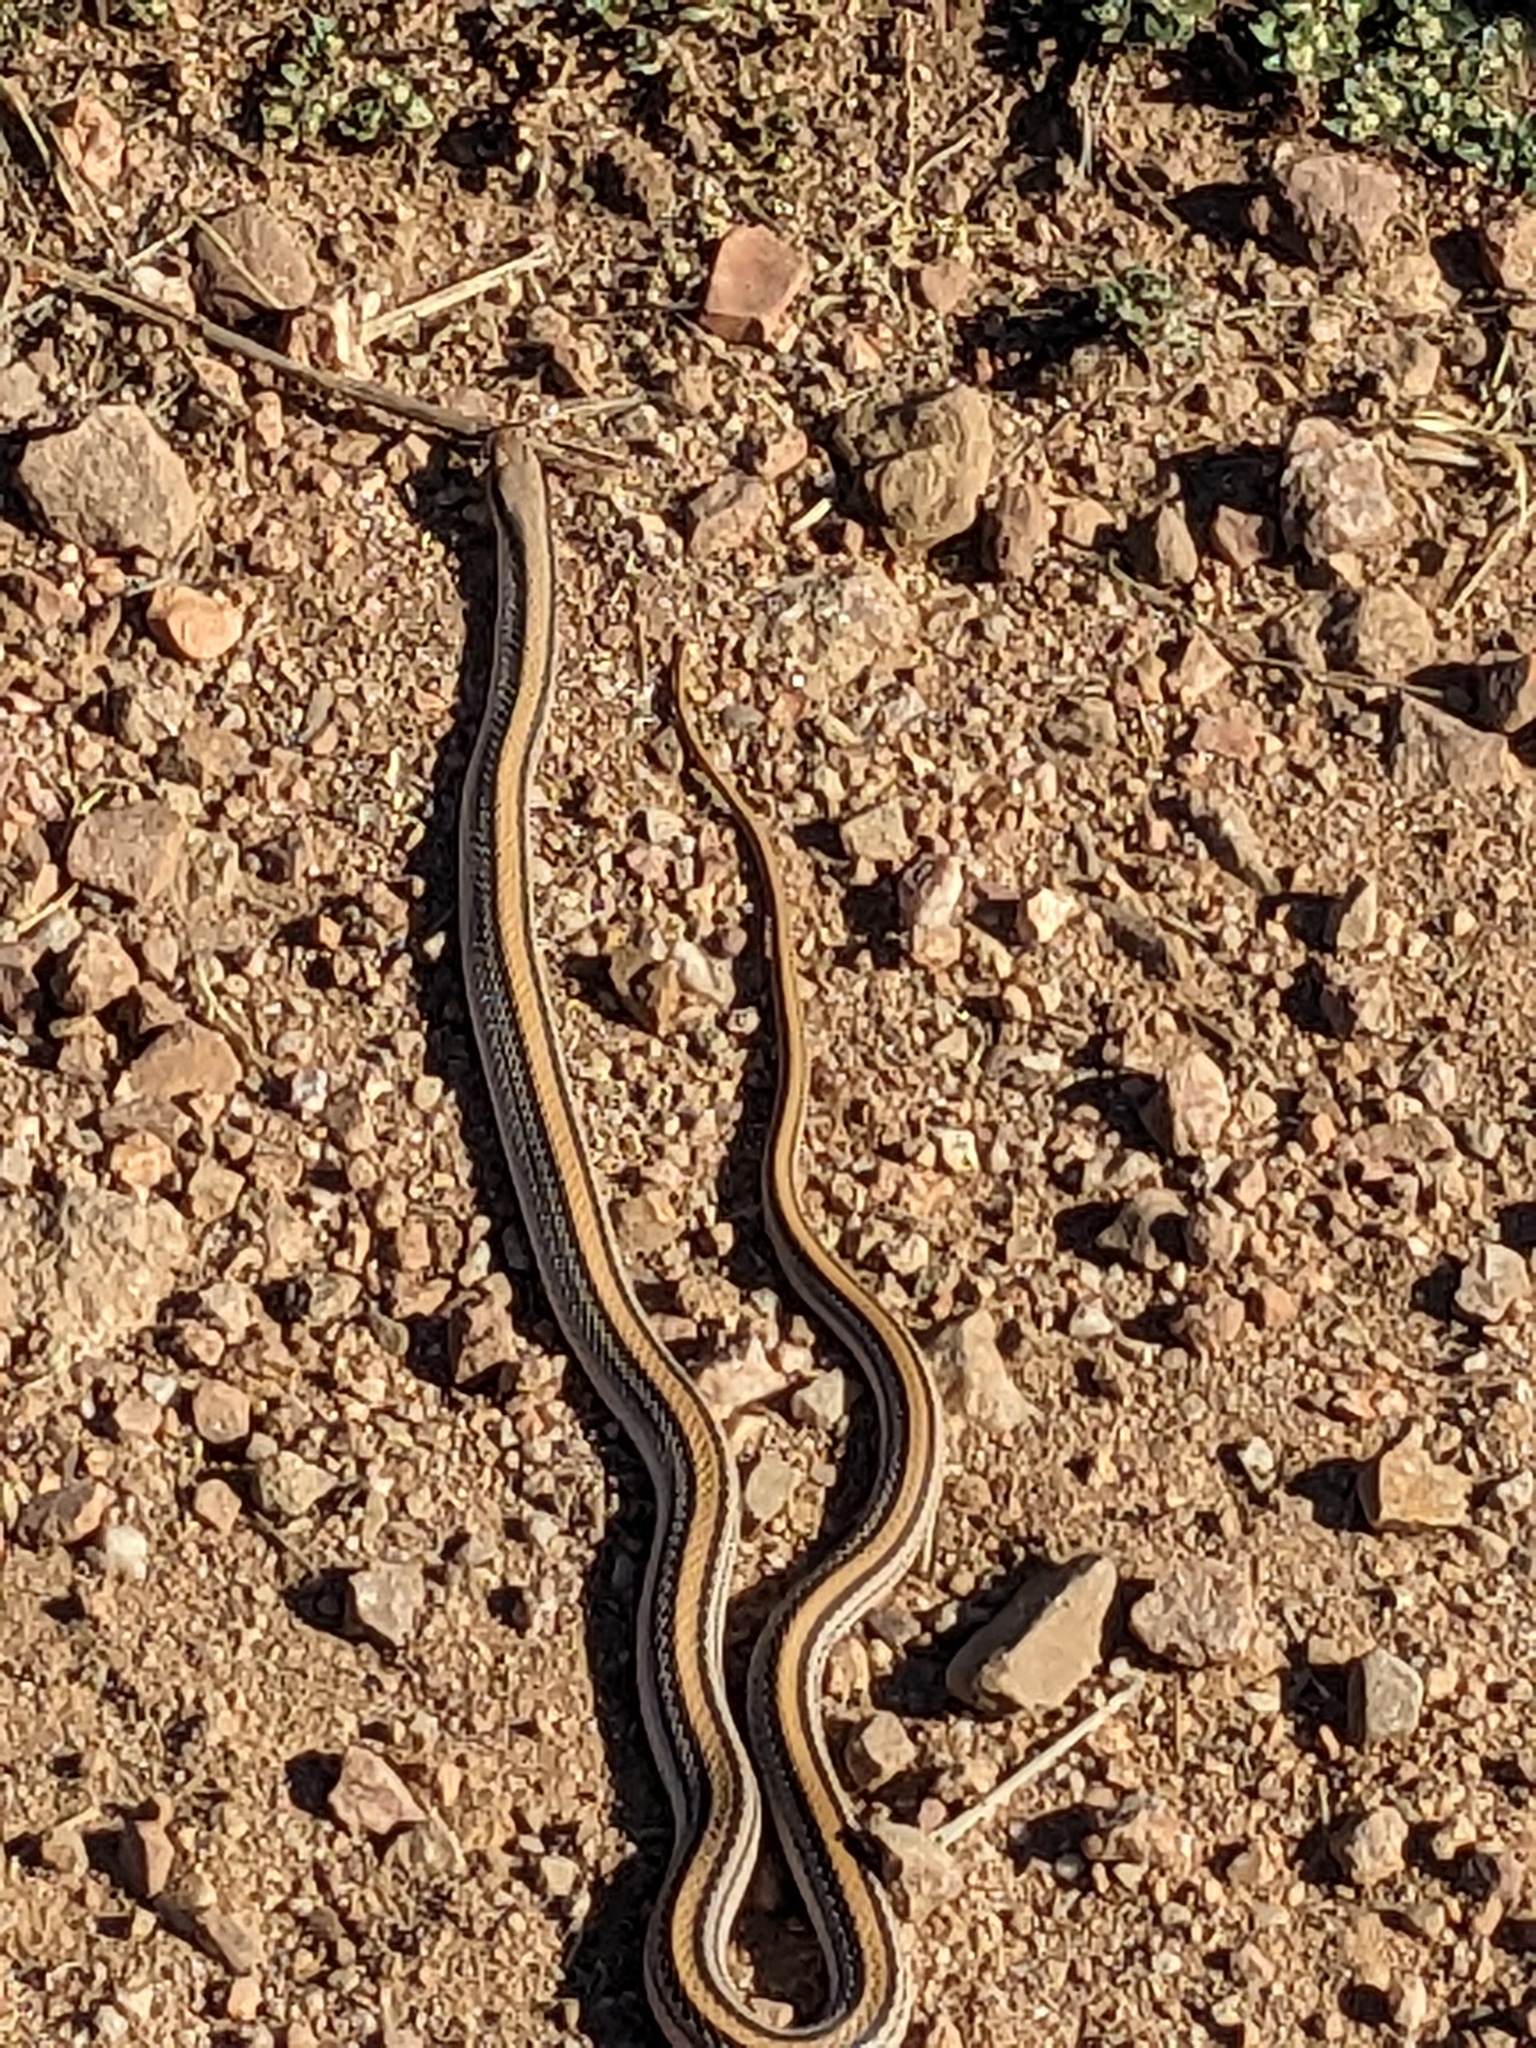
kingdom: Animalia
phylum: Chordata
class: Squamata
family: Colubridae
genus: Salvadora
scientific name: Salvadora deserticola
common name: Big bend patchnose snake
